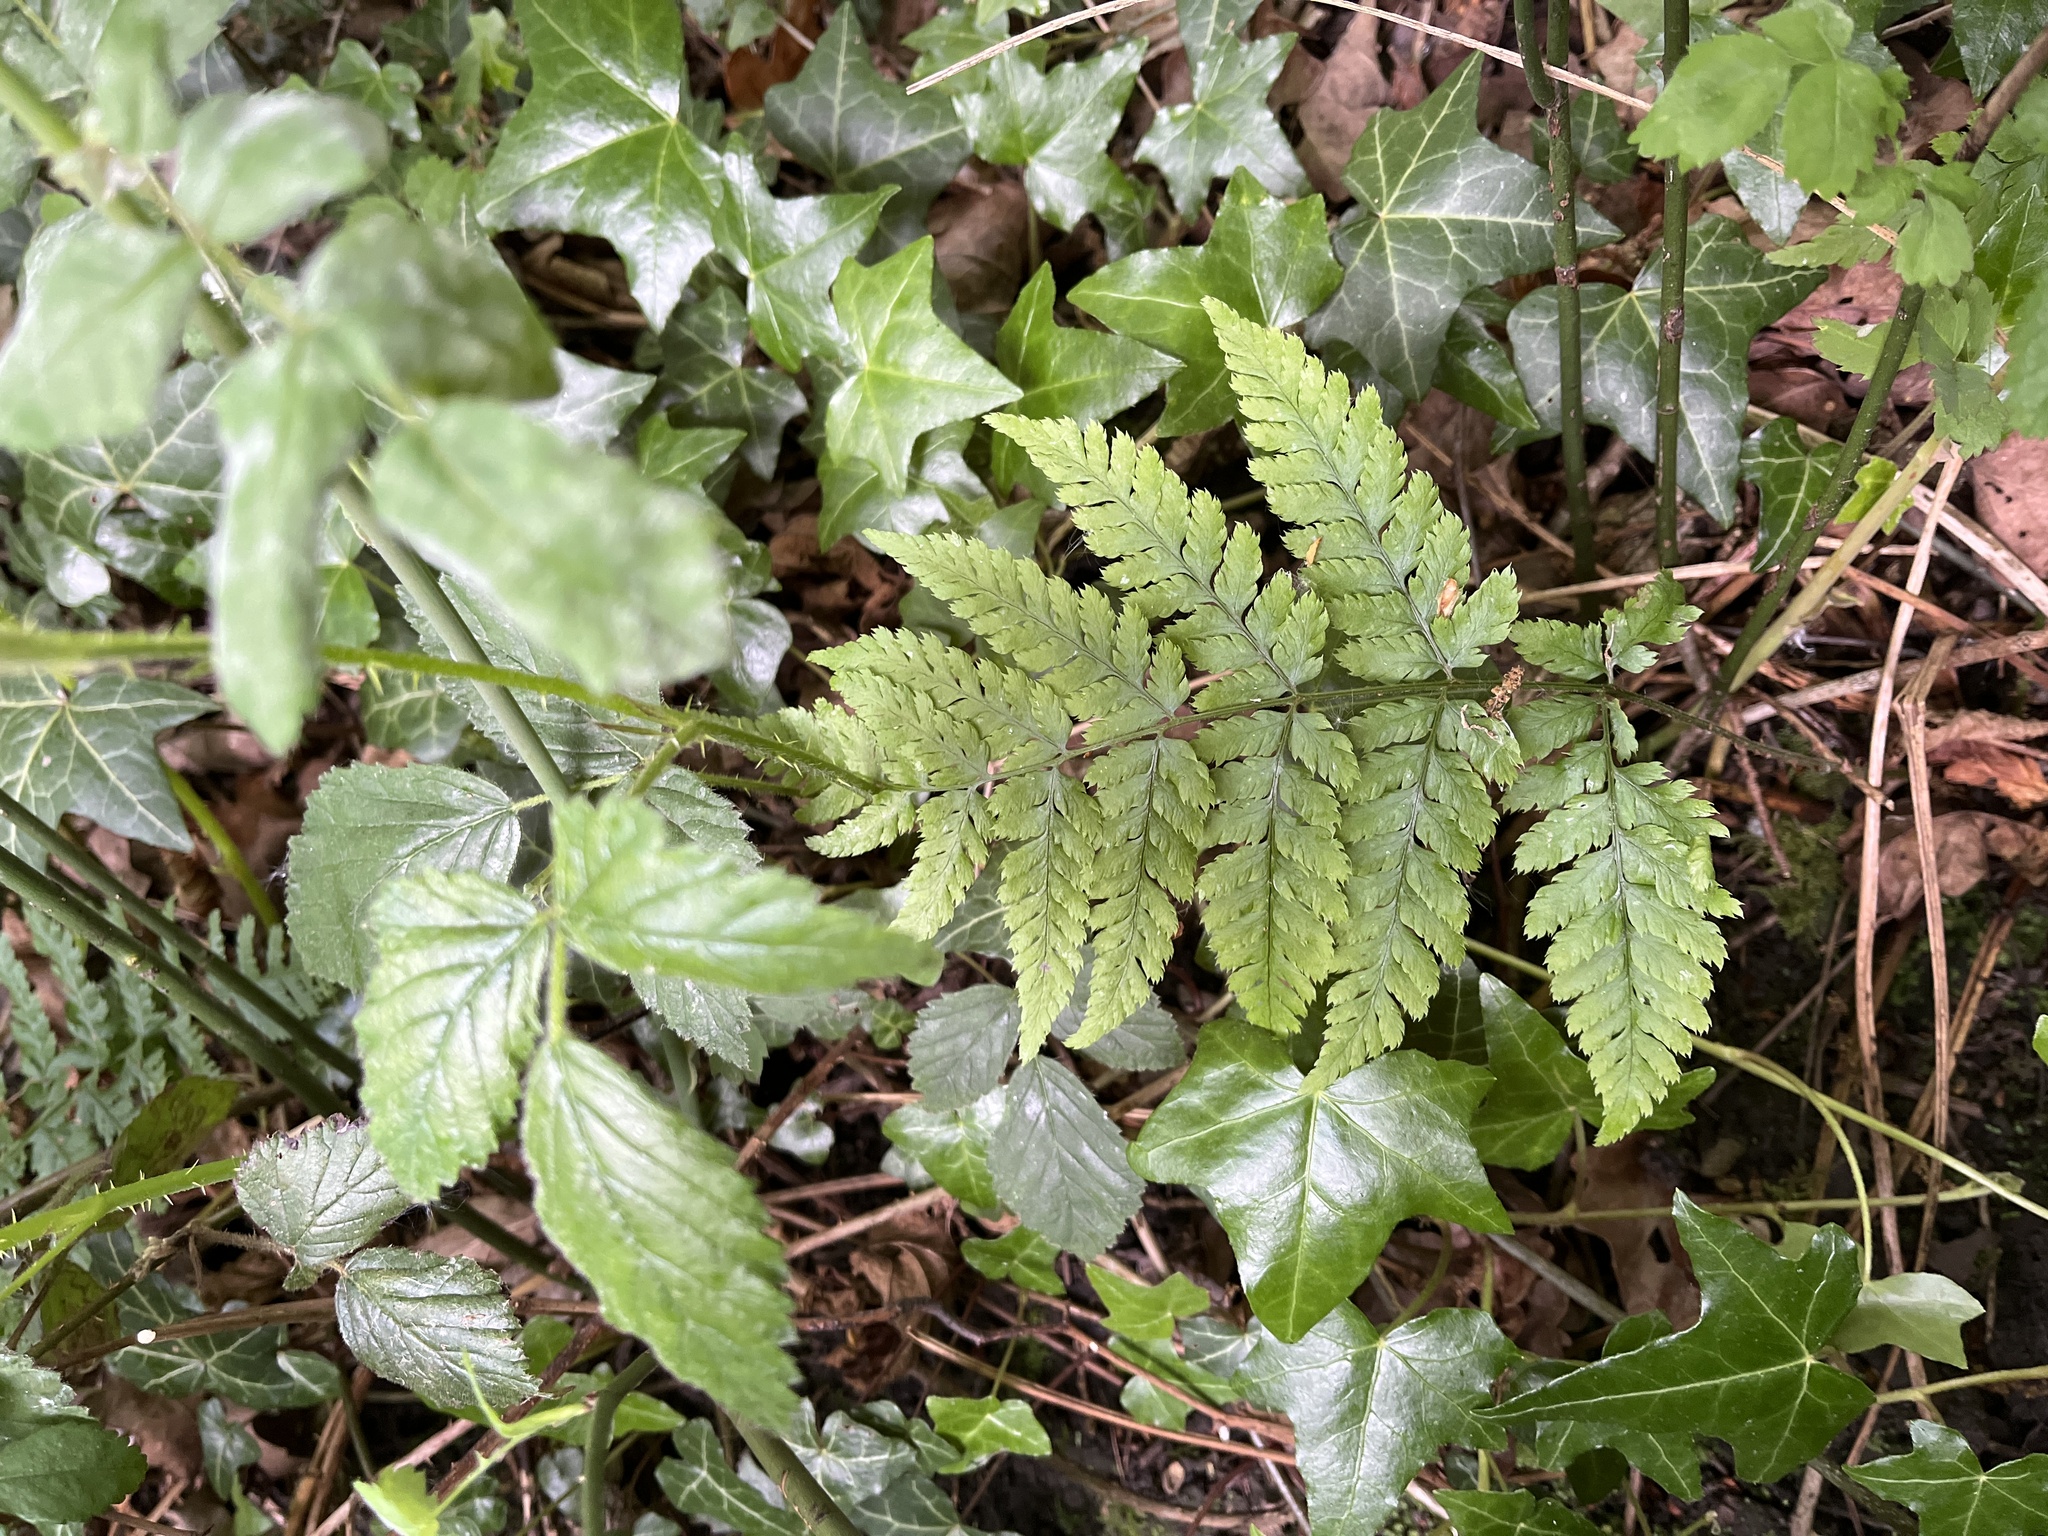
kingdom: Plantae
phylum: Tracheophyta
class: Polypodiopsida
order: Polypodiales
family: Dryopteridaceae
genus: Dryopteris
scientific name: Dryopteris dilatata
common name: Broad buckler-fern
